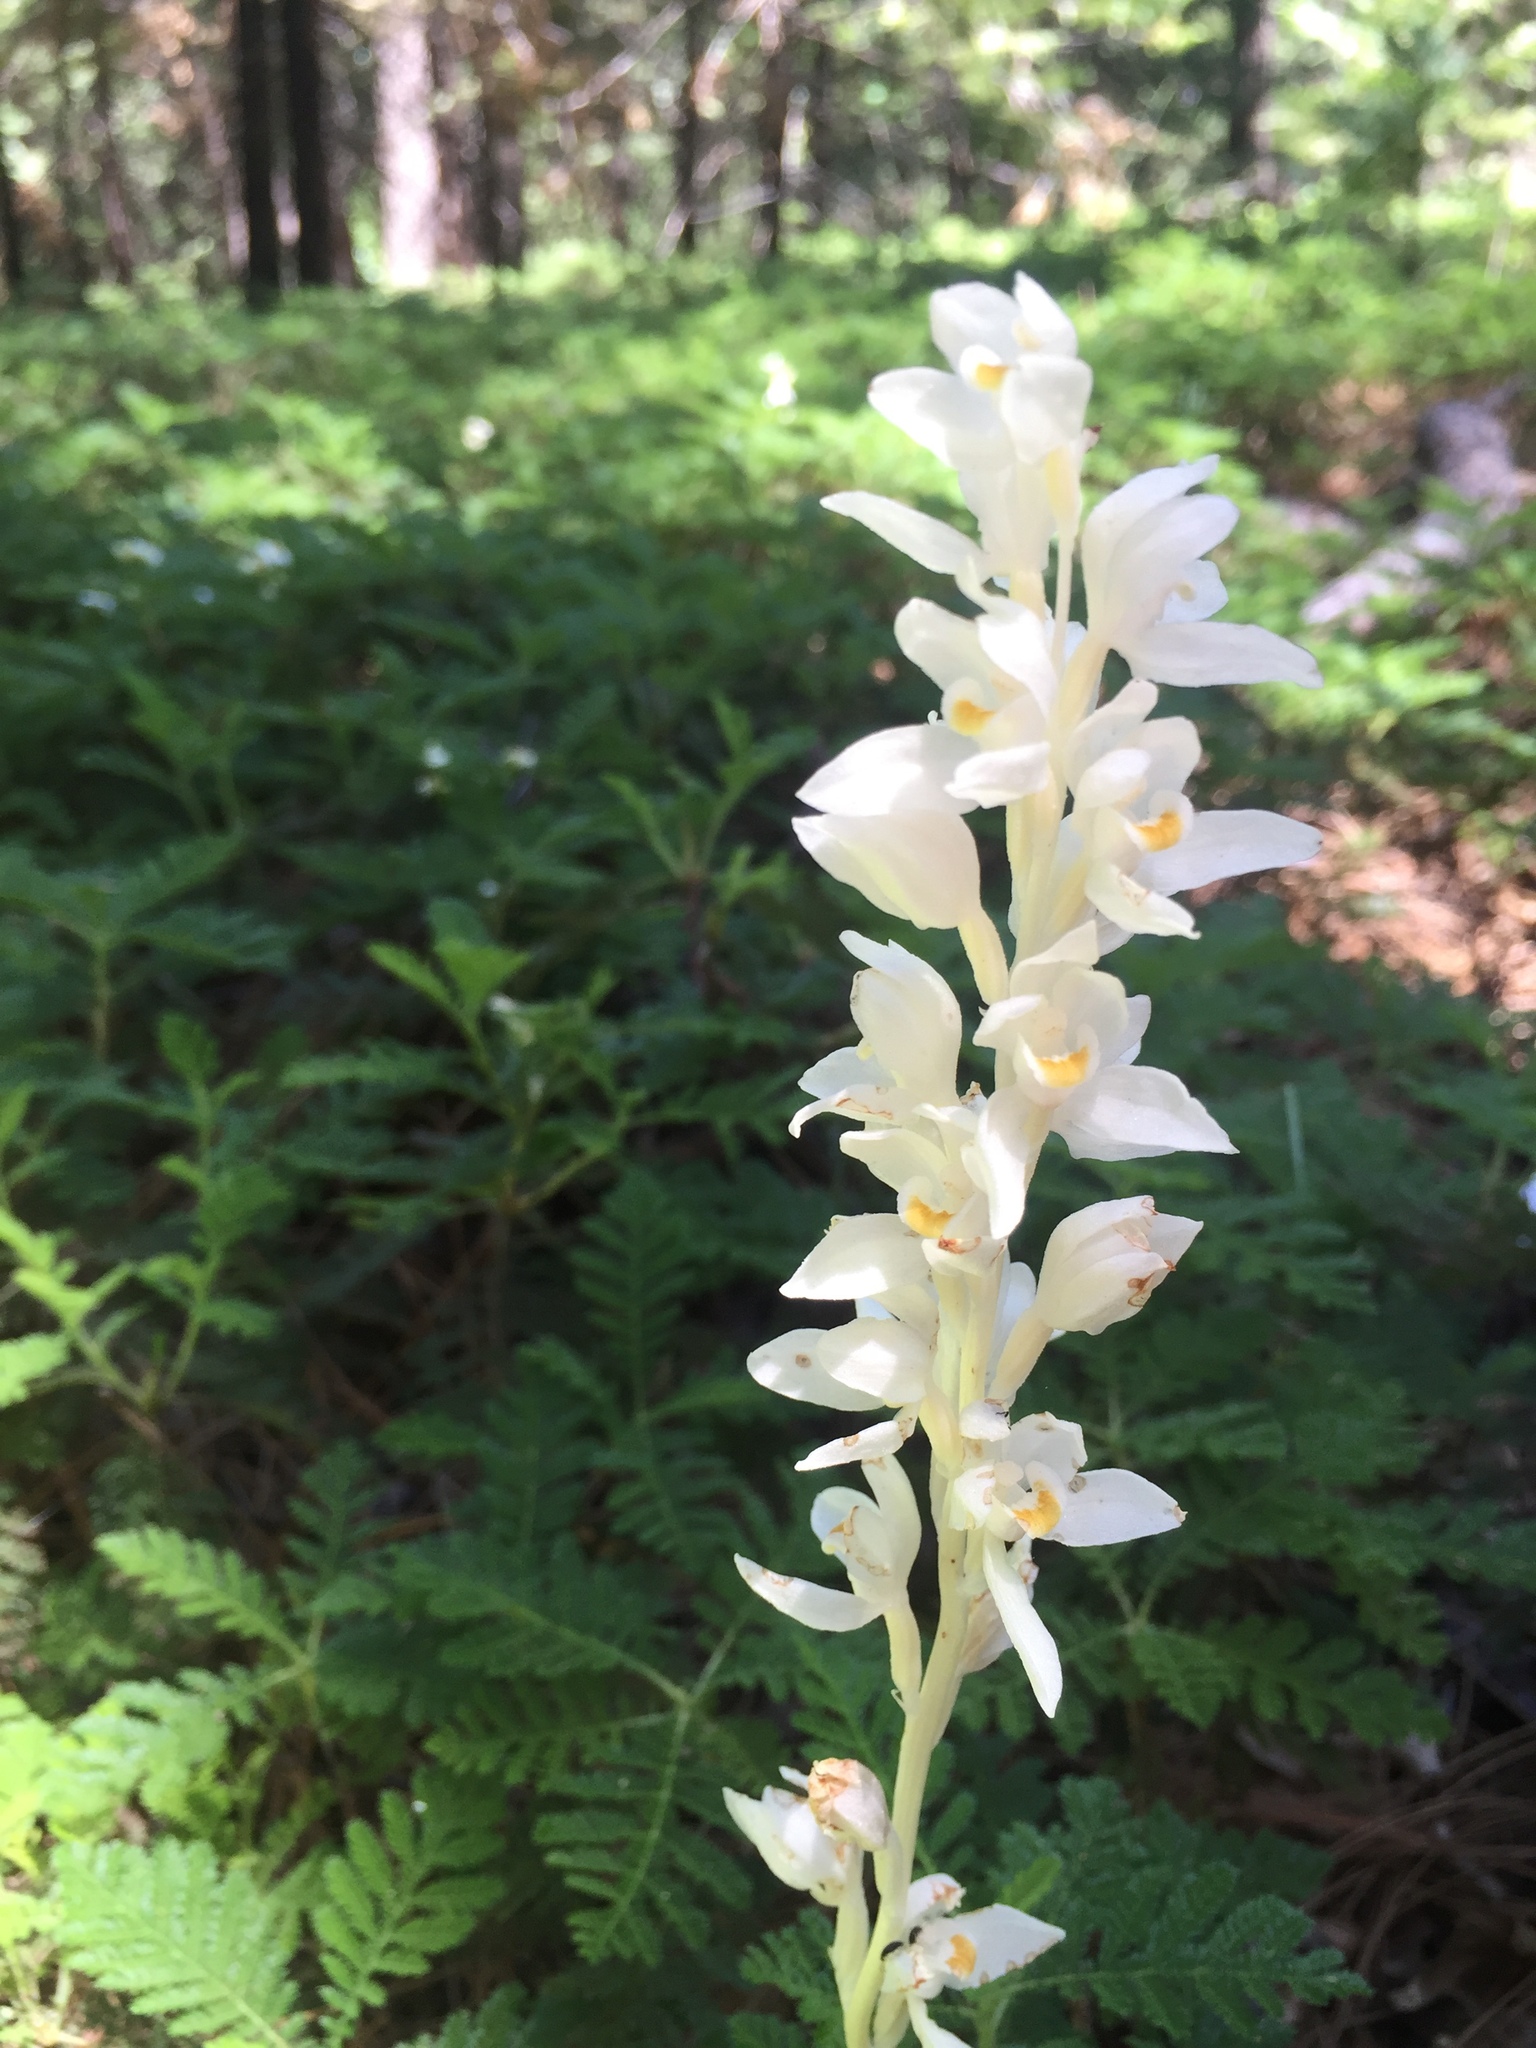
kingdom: Plantae
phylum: Tracheophyta
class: Liliopsida
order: Asparagales
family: Orchidaceae
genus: Cephalanthera
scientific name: Cephalanthera austiniae
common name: Phantom orchid
